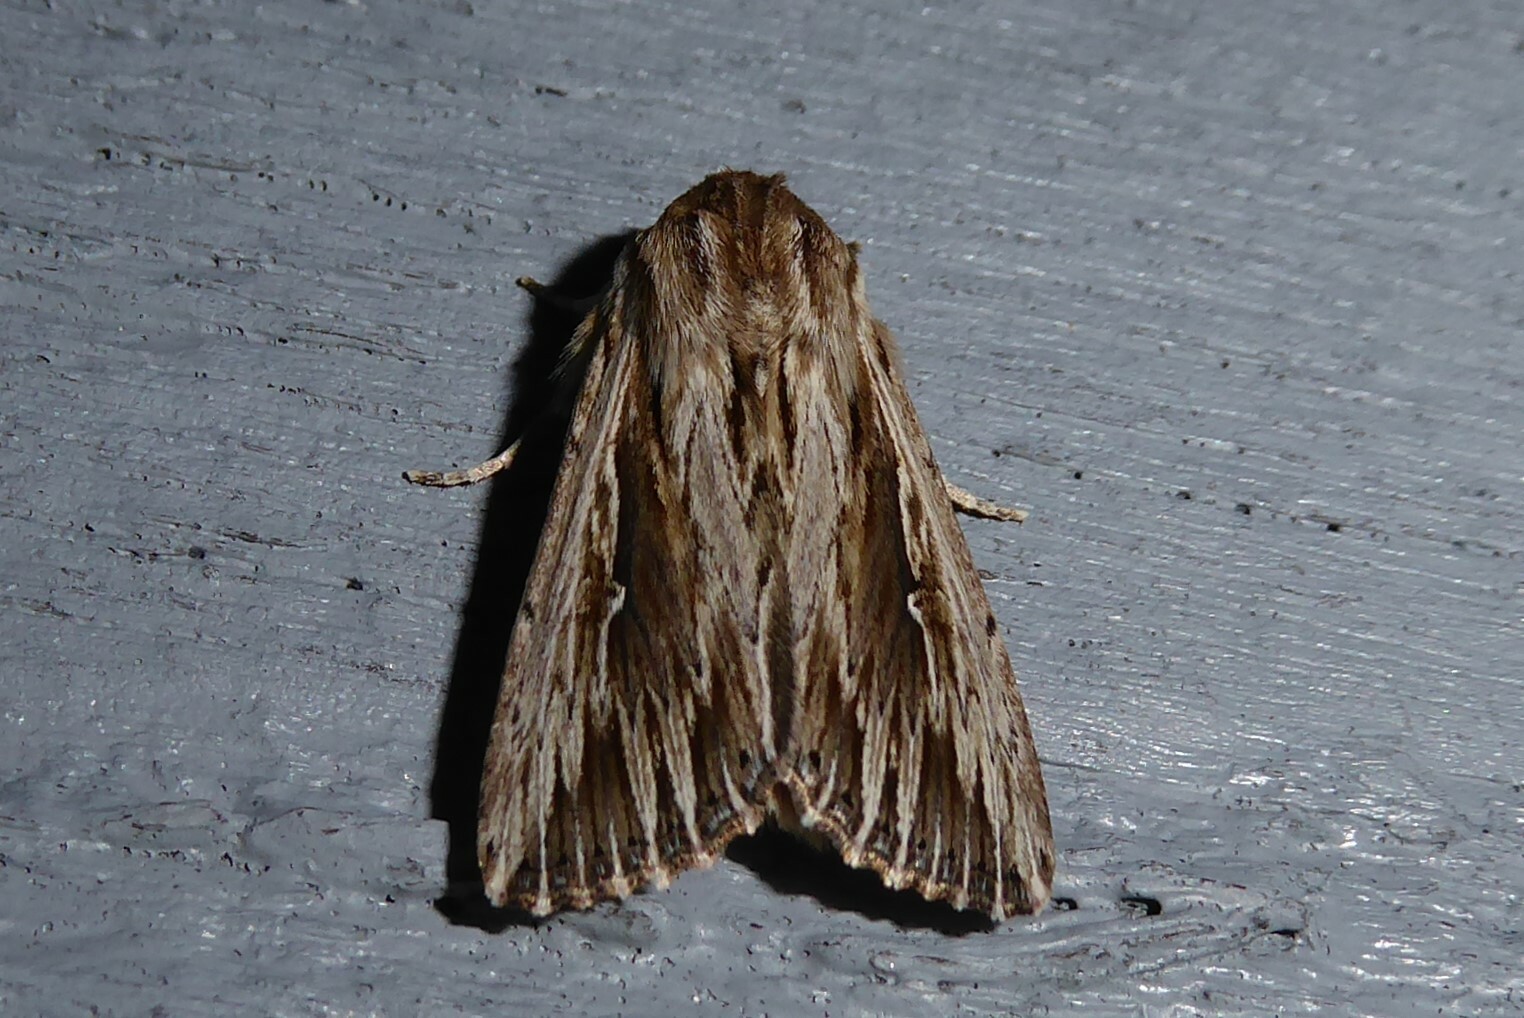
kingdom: Animalia
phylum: Arthropoda
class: Insecta
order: Lepidoptera
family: Noctuidae
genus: Persectania
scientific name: Persectania aversa
